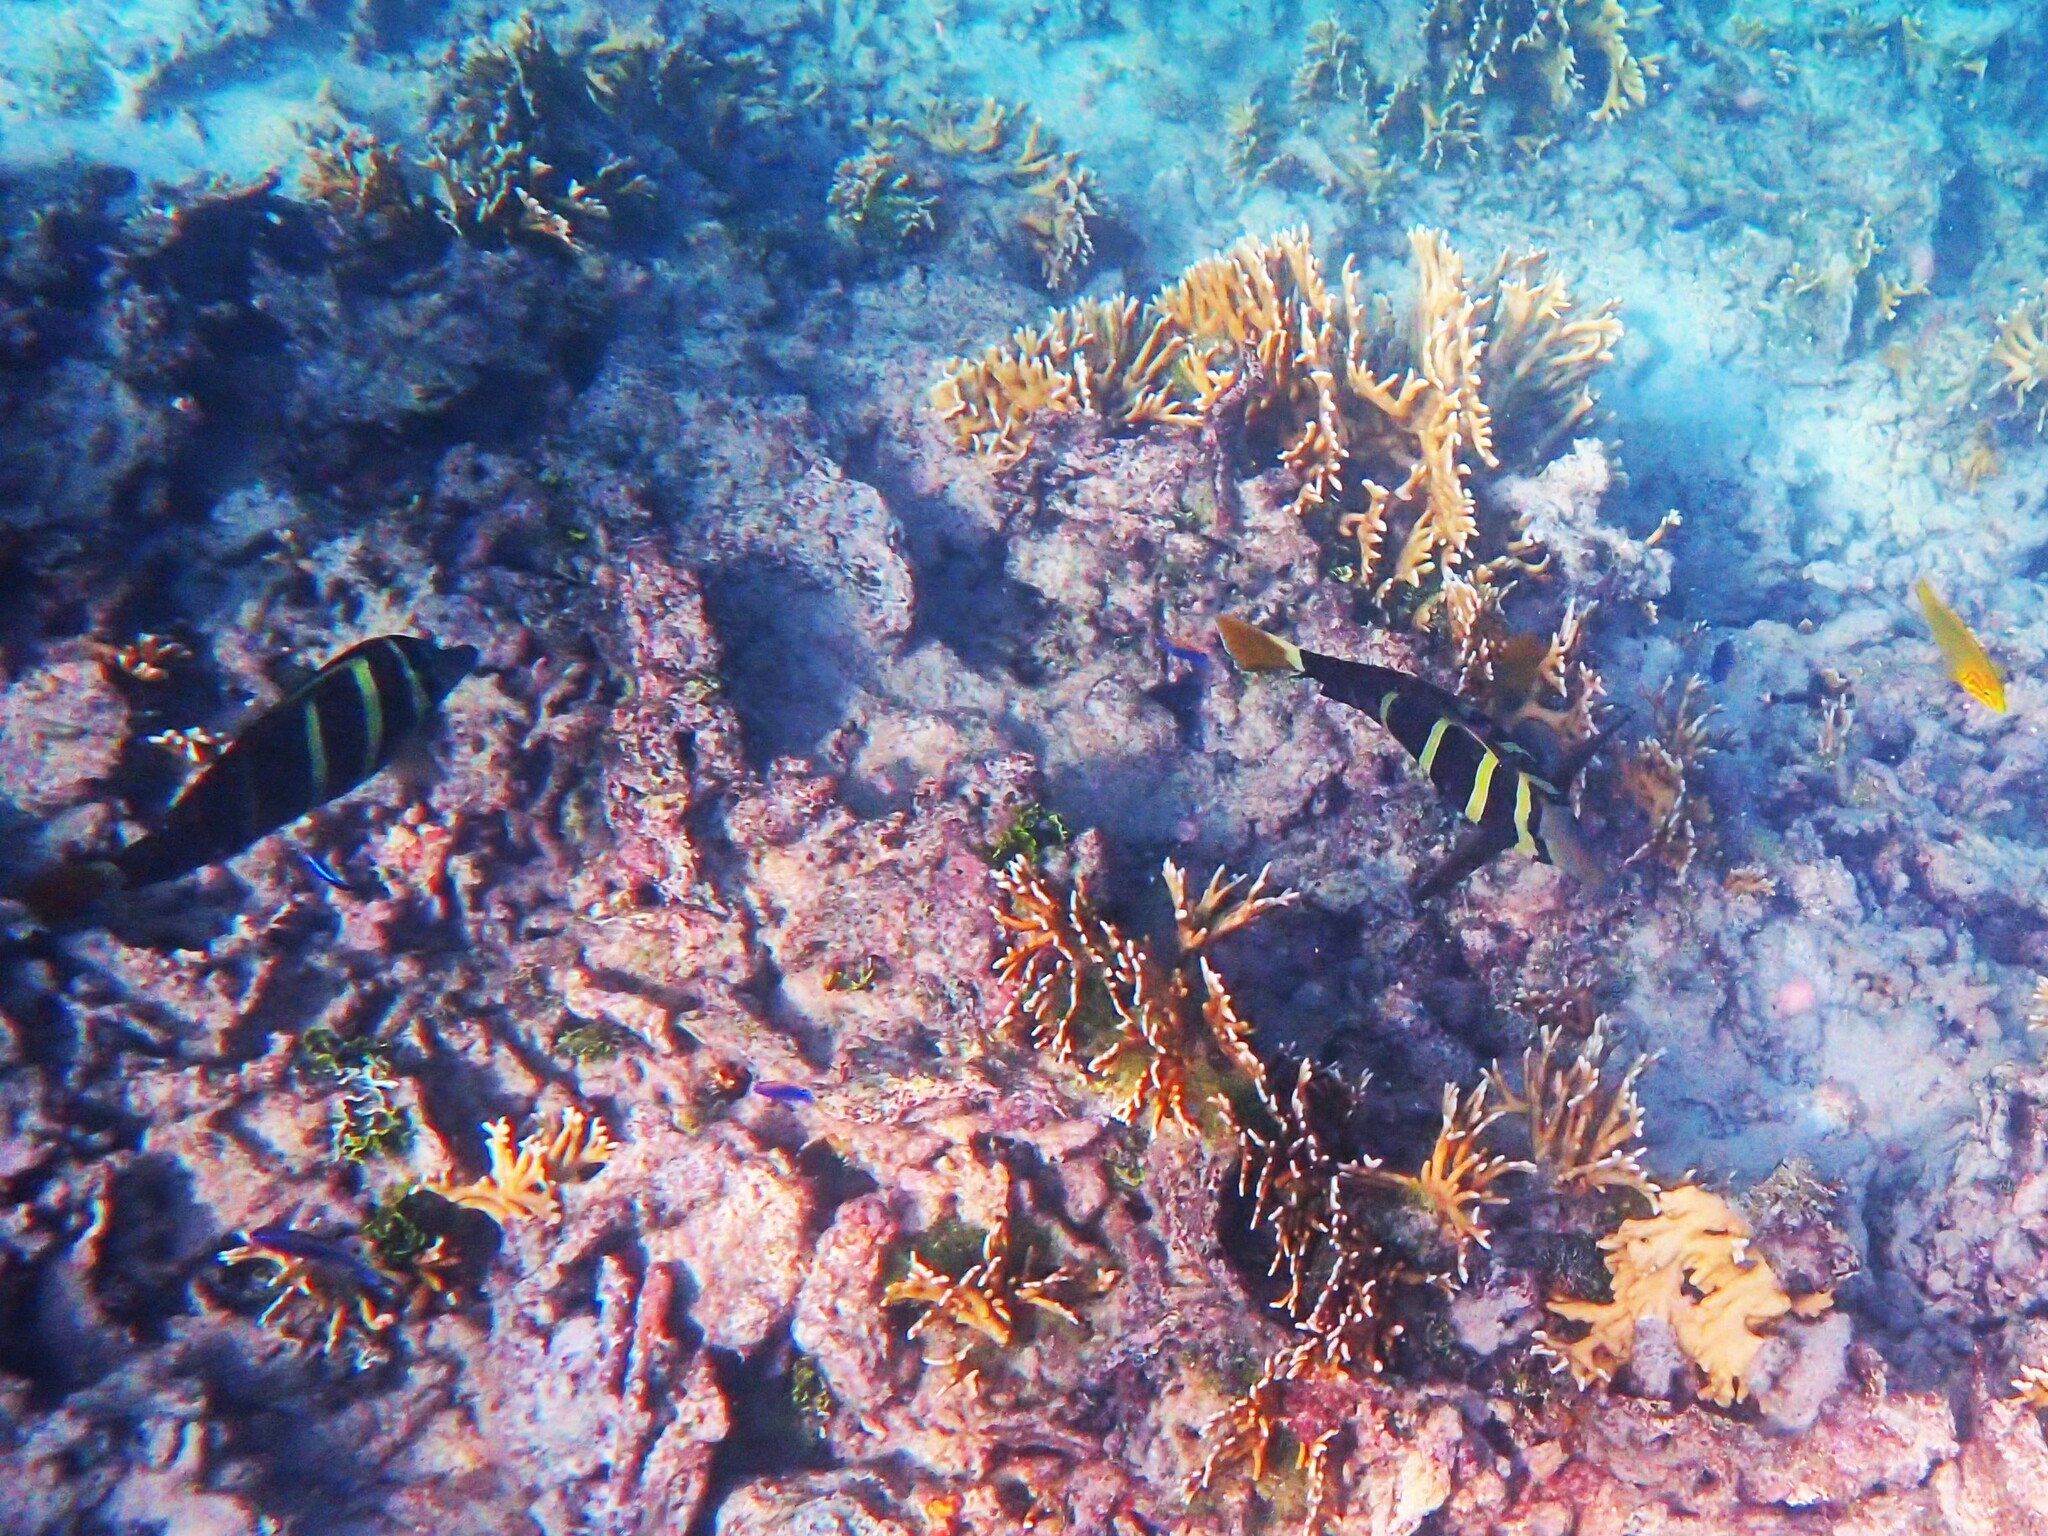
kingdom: Animalia
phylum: Chordata
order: Perciformes
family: Acanthuridae
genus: Zebrasoma
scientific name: Zebrasoma veliferum
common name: Sailfin surgeonfish
